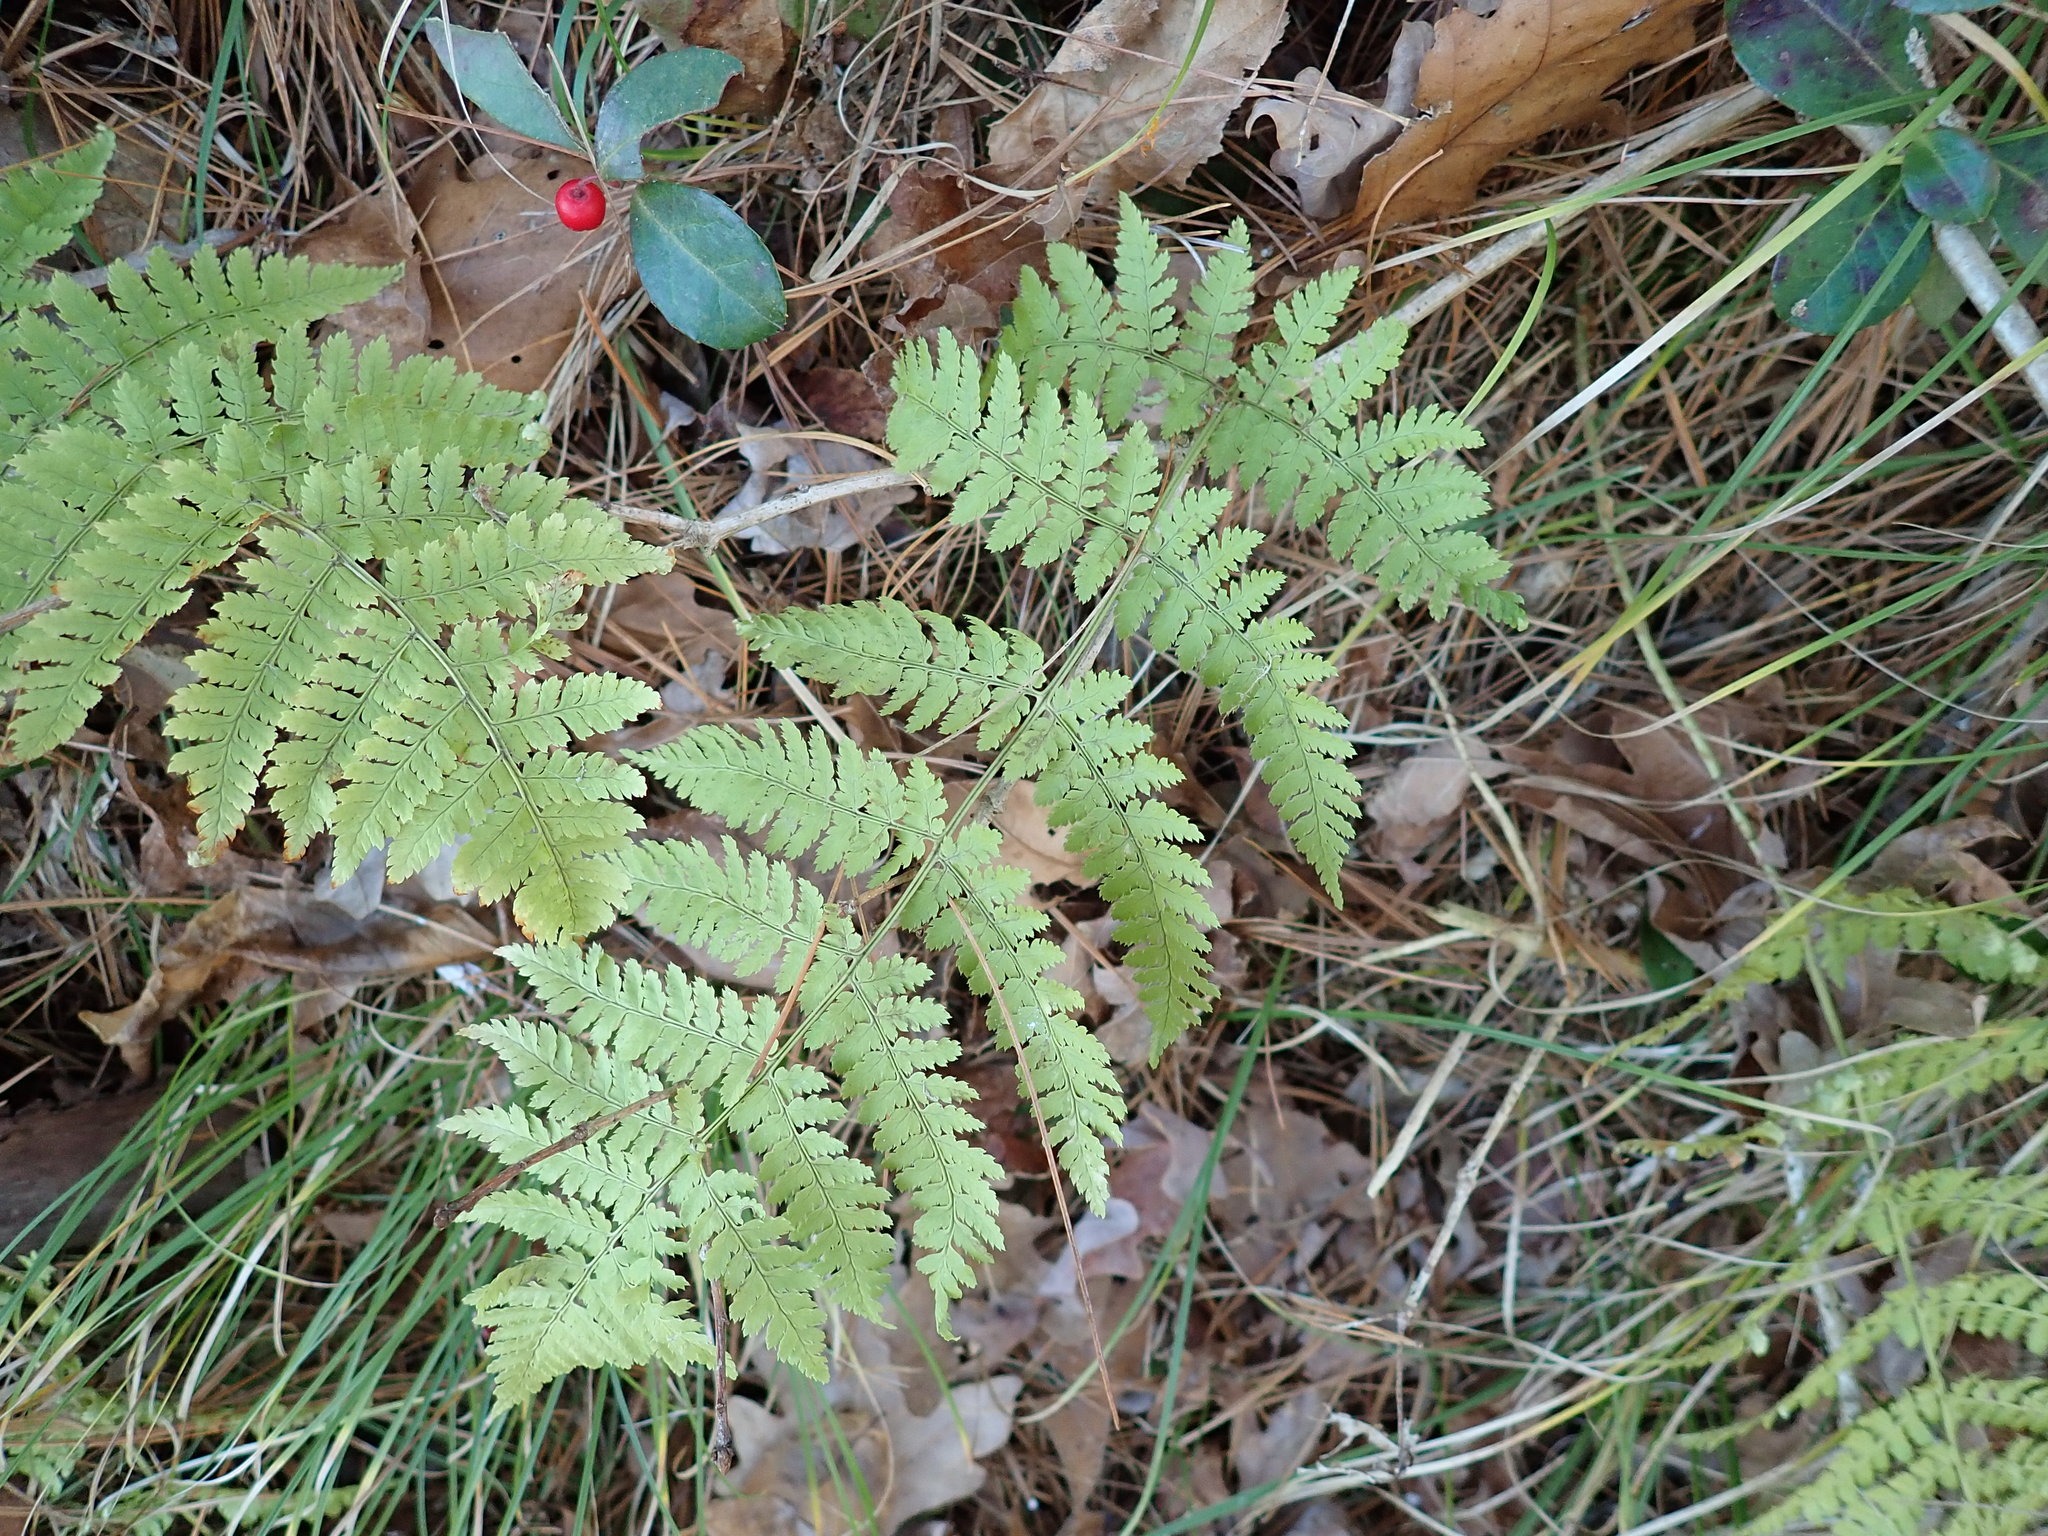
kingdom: Plantae
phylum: Tracheophyta
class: Polypodiopsida
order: Polypodiales
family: Dryopteridaceae
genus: Dryopteris
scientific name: Dryopteris intermedia
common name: Evergreen wood fern
